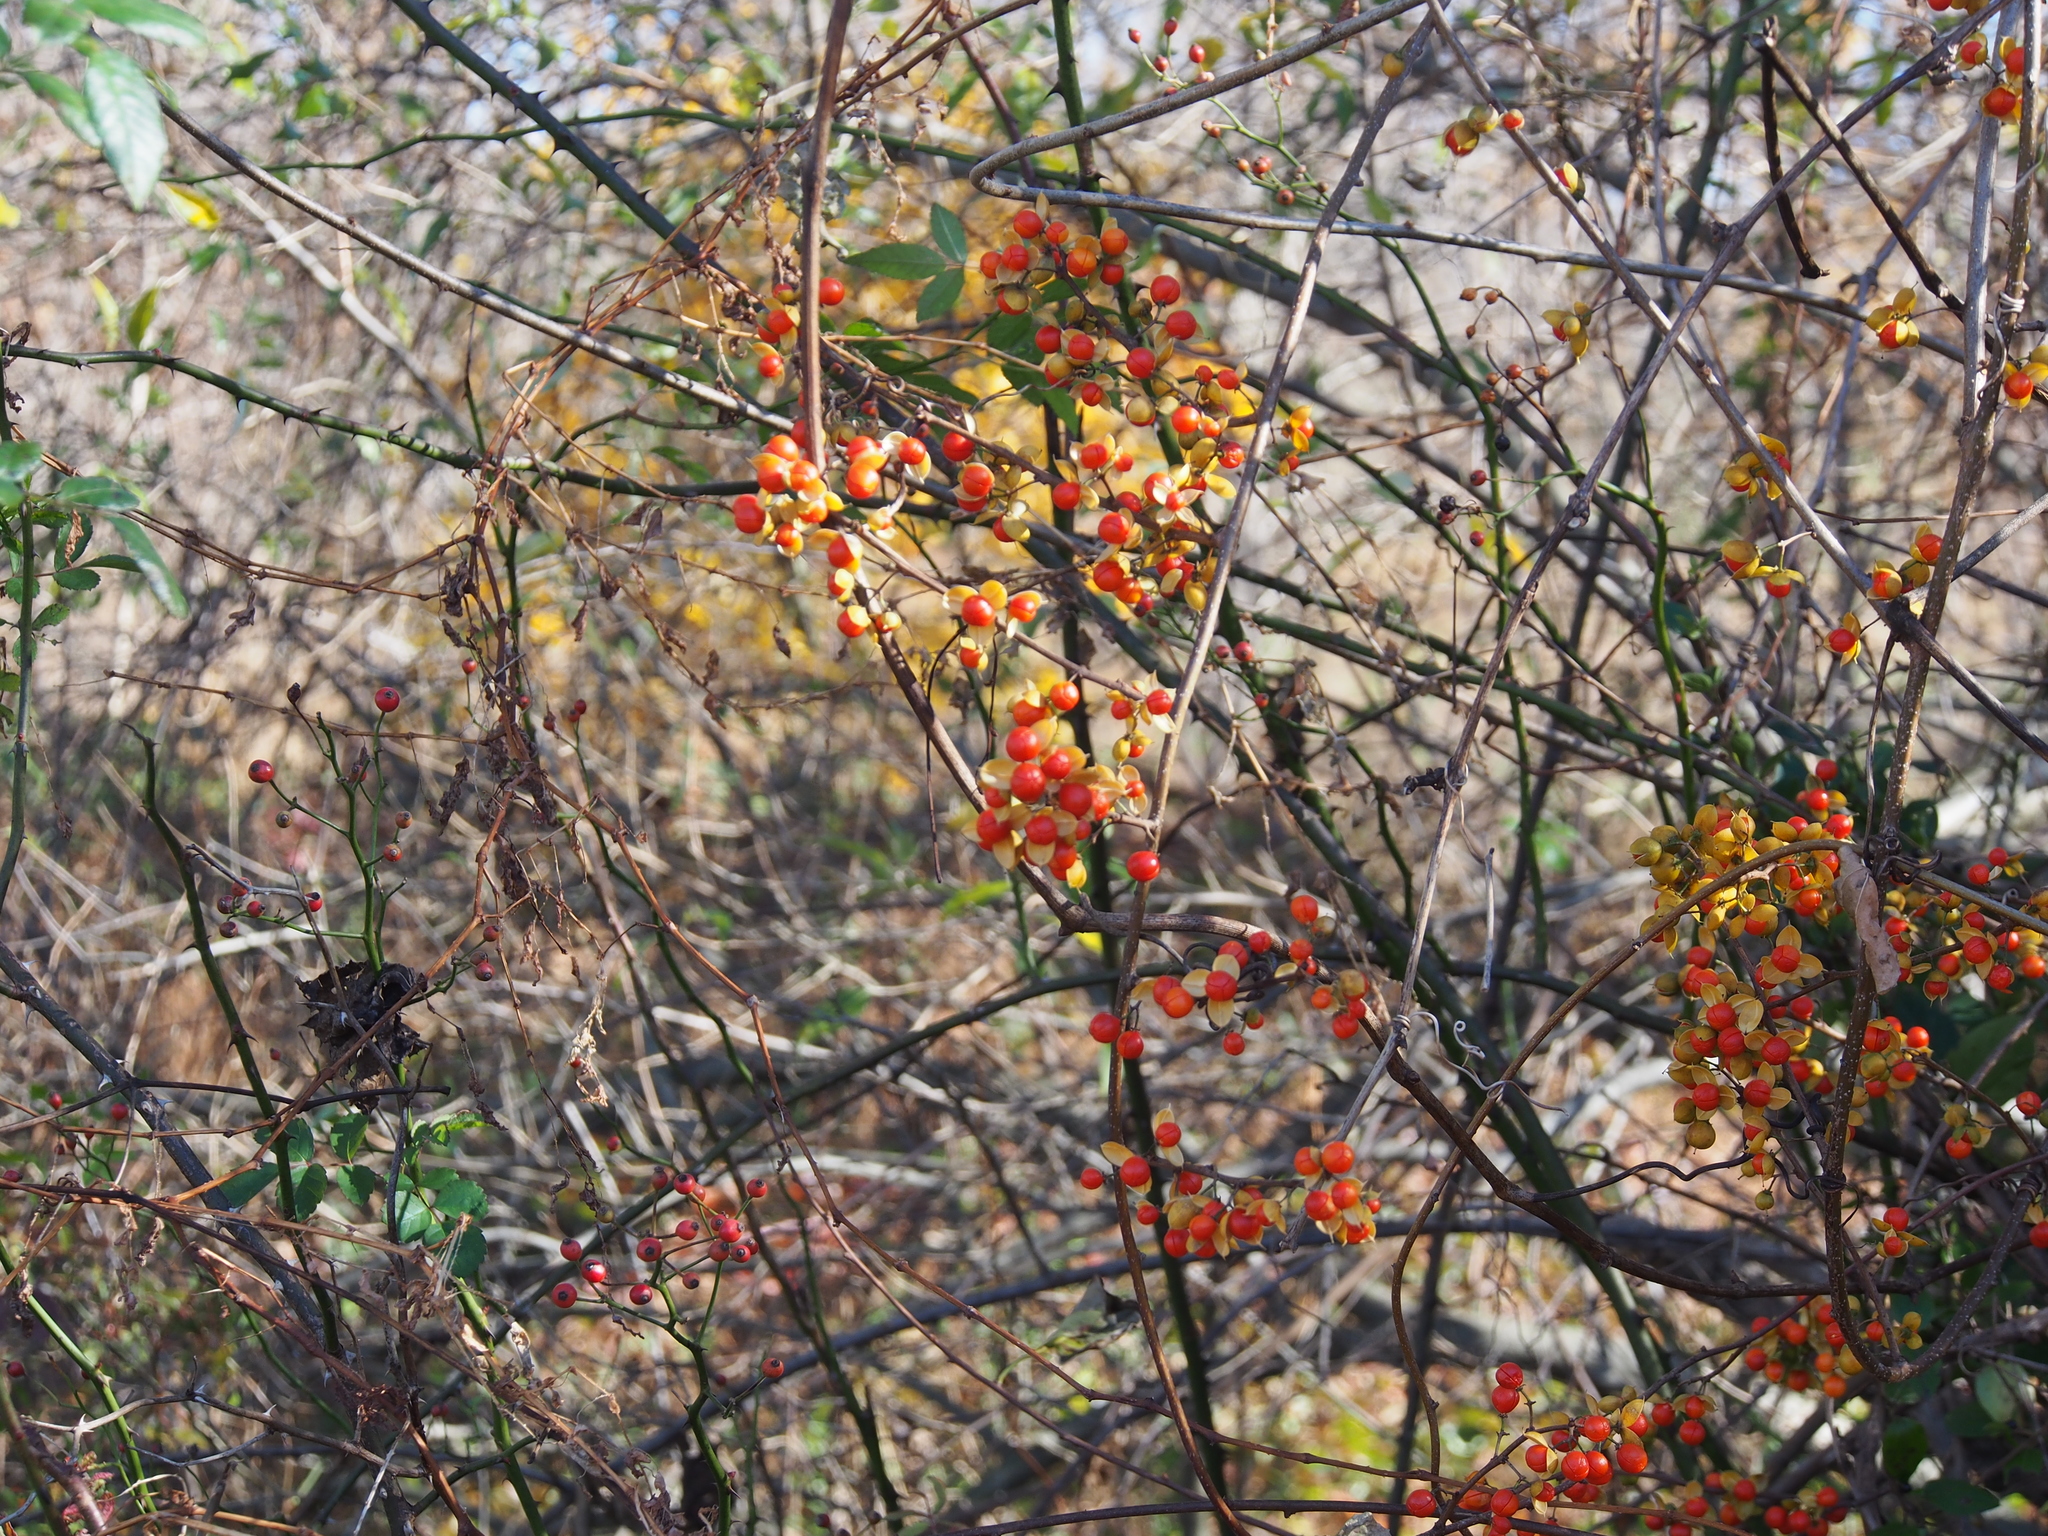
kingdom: Plantae
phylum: Tracheophyta
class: Magnoliopsida
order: Celastrales
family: Celastraceae
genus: Celastrus
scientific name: Celastrus orbiculatus
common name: Oriental bittersweet
